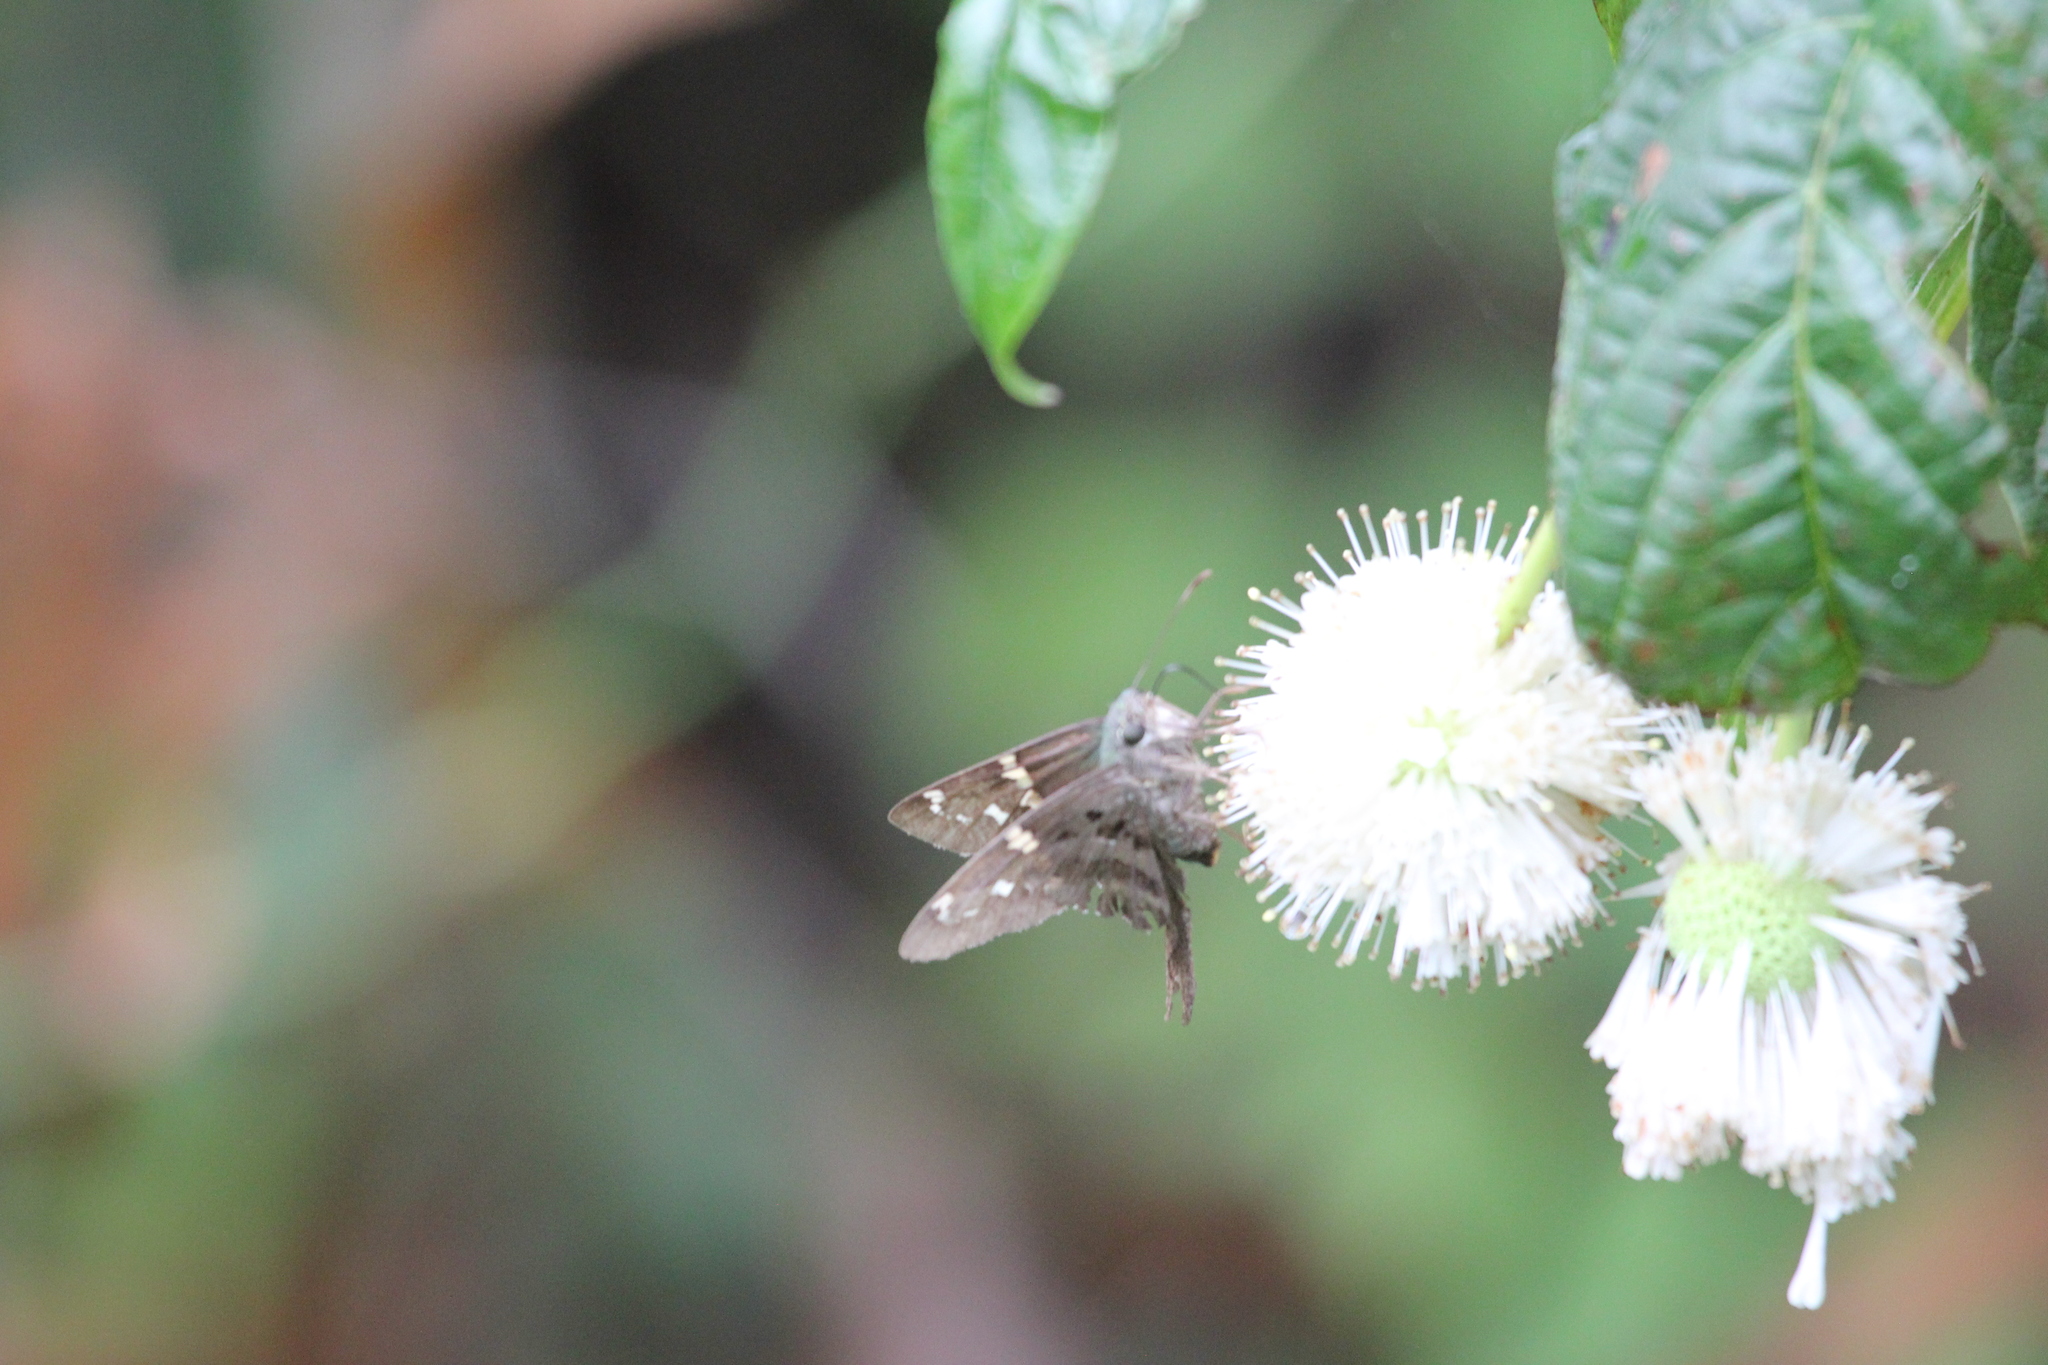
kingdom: Animalia
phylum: Arthropoda
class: Insecta
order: Lepidoptera
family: Hesperiidae
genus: Urbanus
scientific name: Urbanus proteus
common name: Long-tailed skipper
